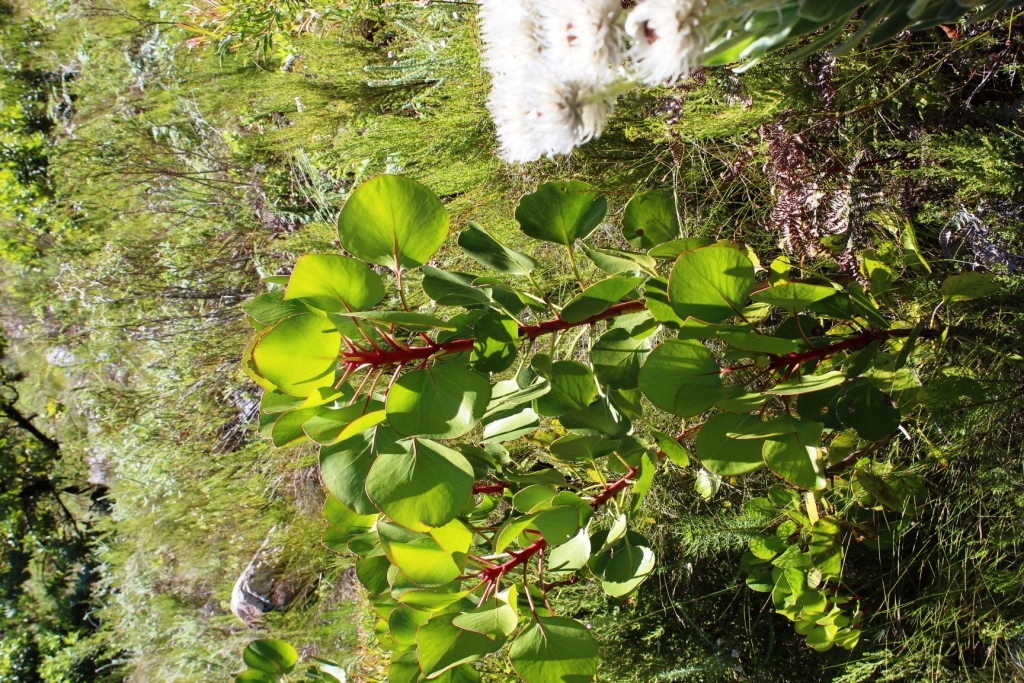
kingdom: Plantae
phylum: Tracheophyta
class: Magnoliopsida
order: Proteales
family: Proteaceae
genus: Protea
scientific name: Protea cynaroides
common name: King protea
